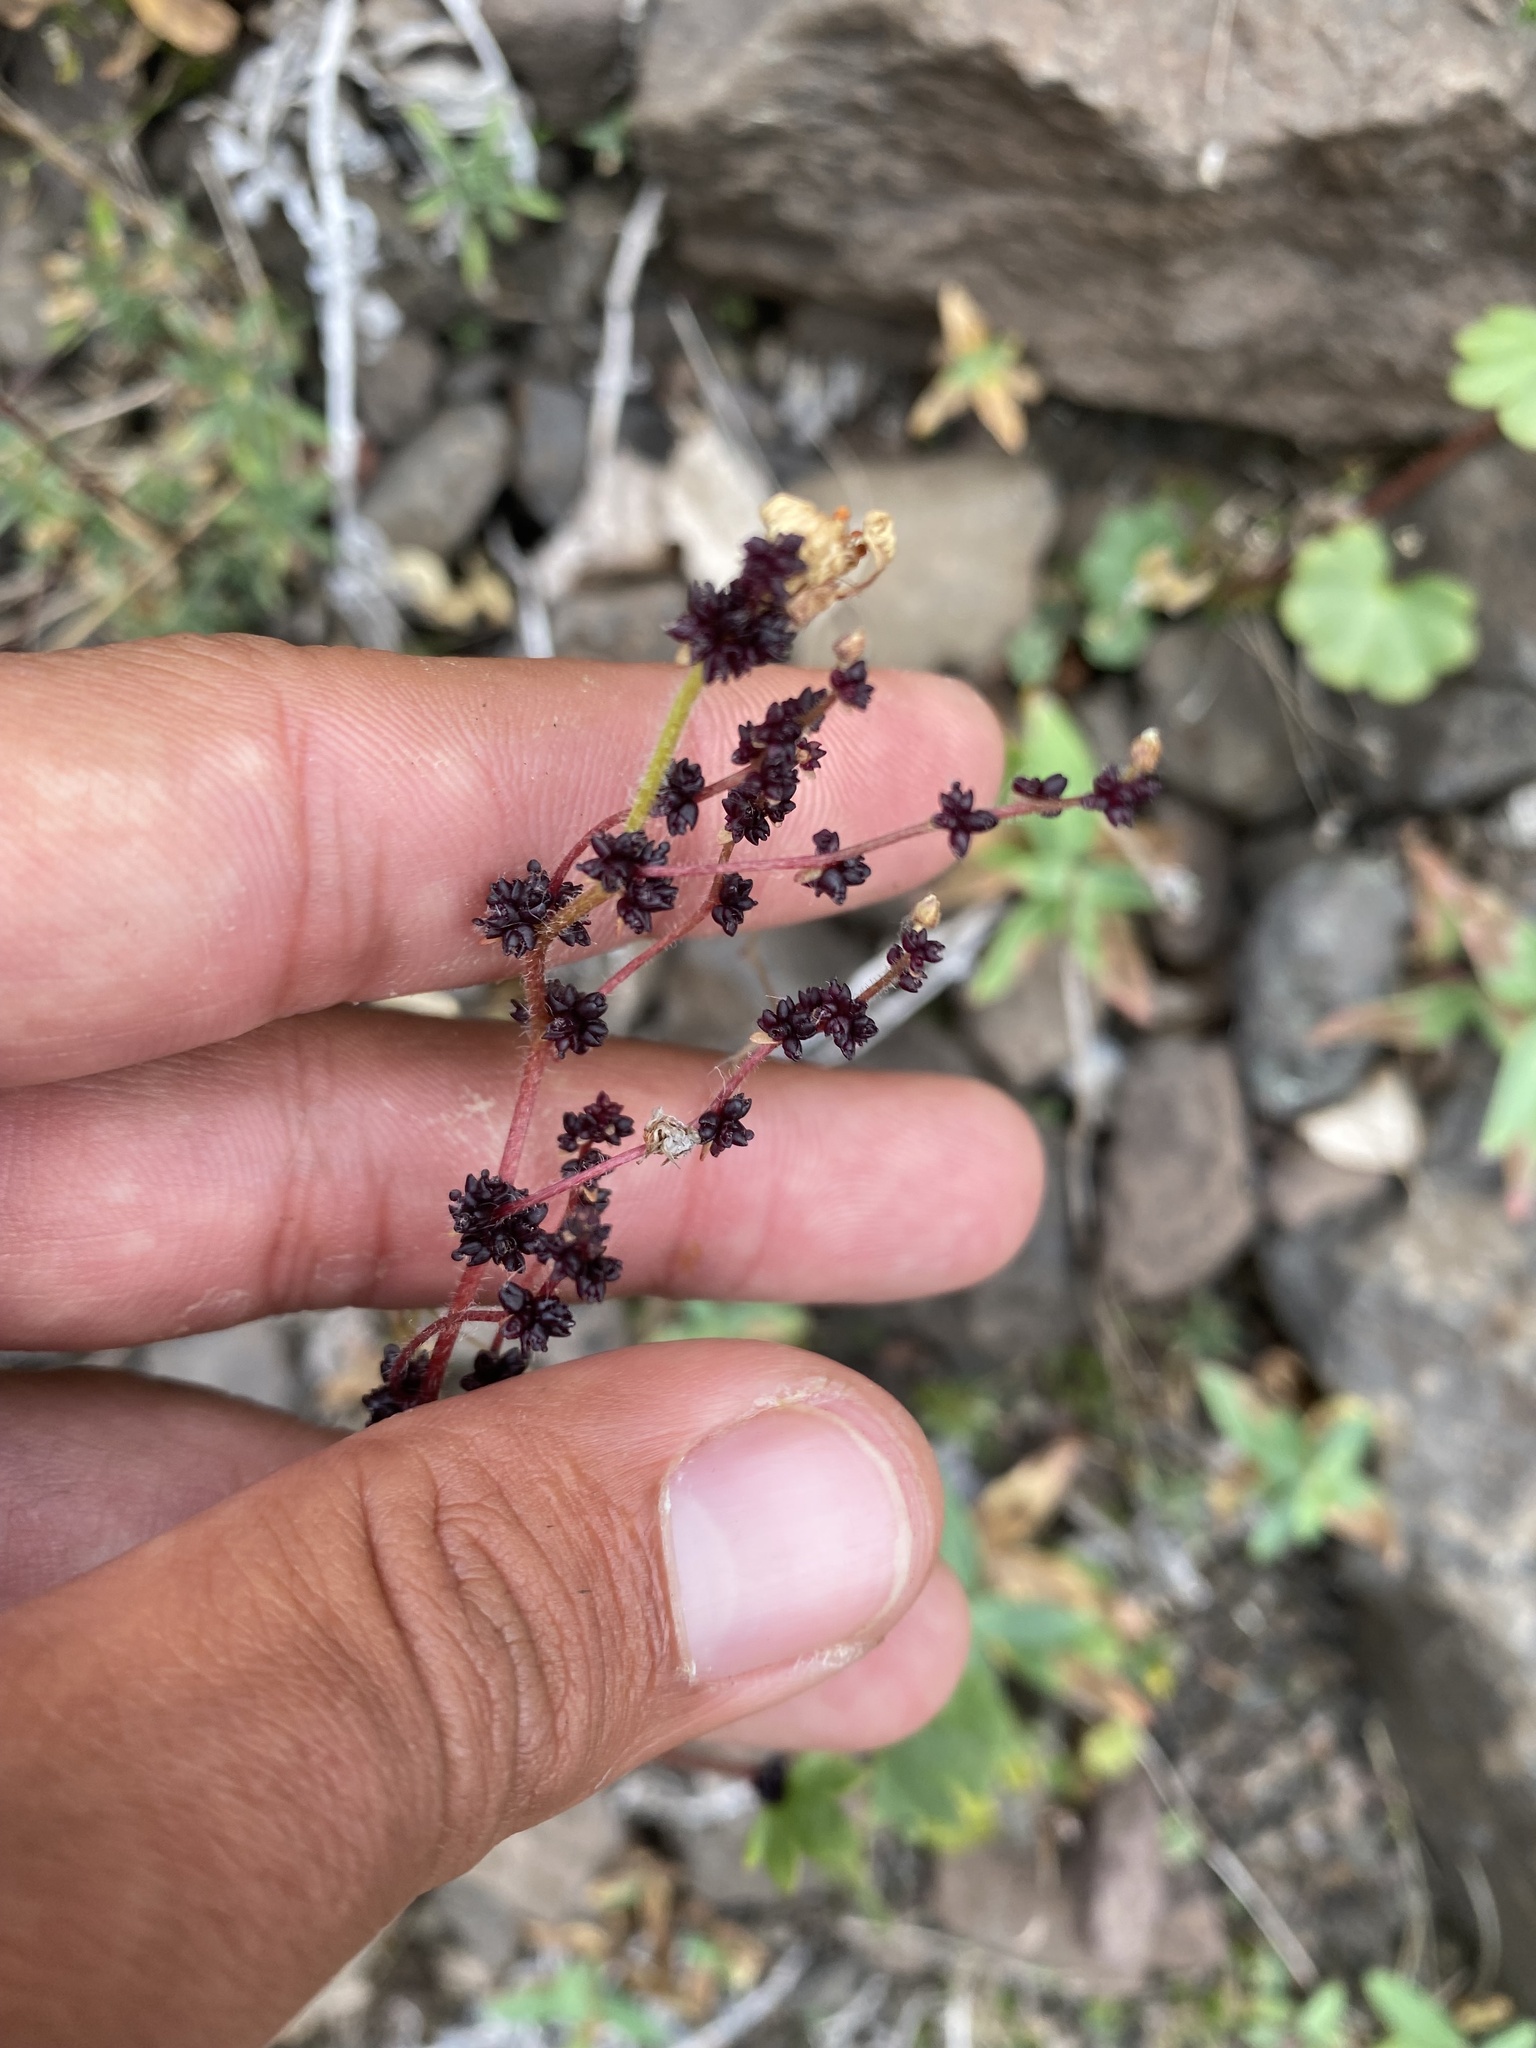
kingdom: Plantae
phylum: Tracheophyta
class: Magnoliopsida
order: Saxifragales
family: Saxifragaceae
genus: Saxifraga
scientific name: Saxifraga cernua
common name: Drooping saxifrage
